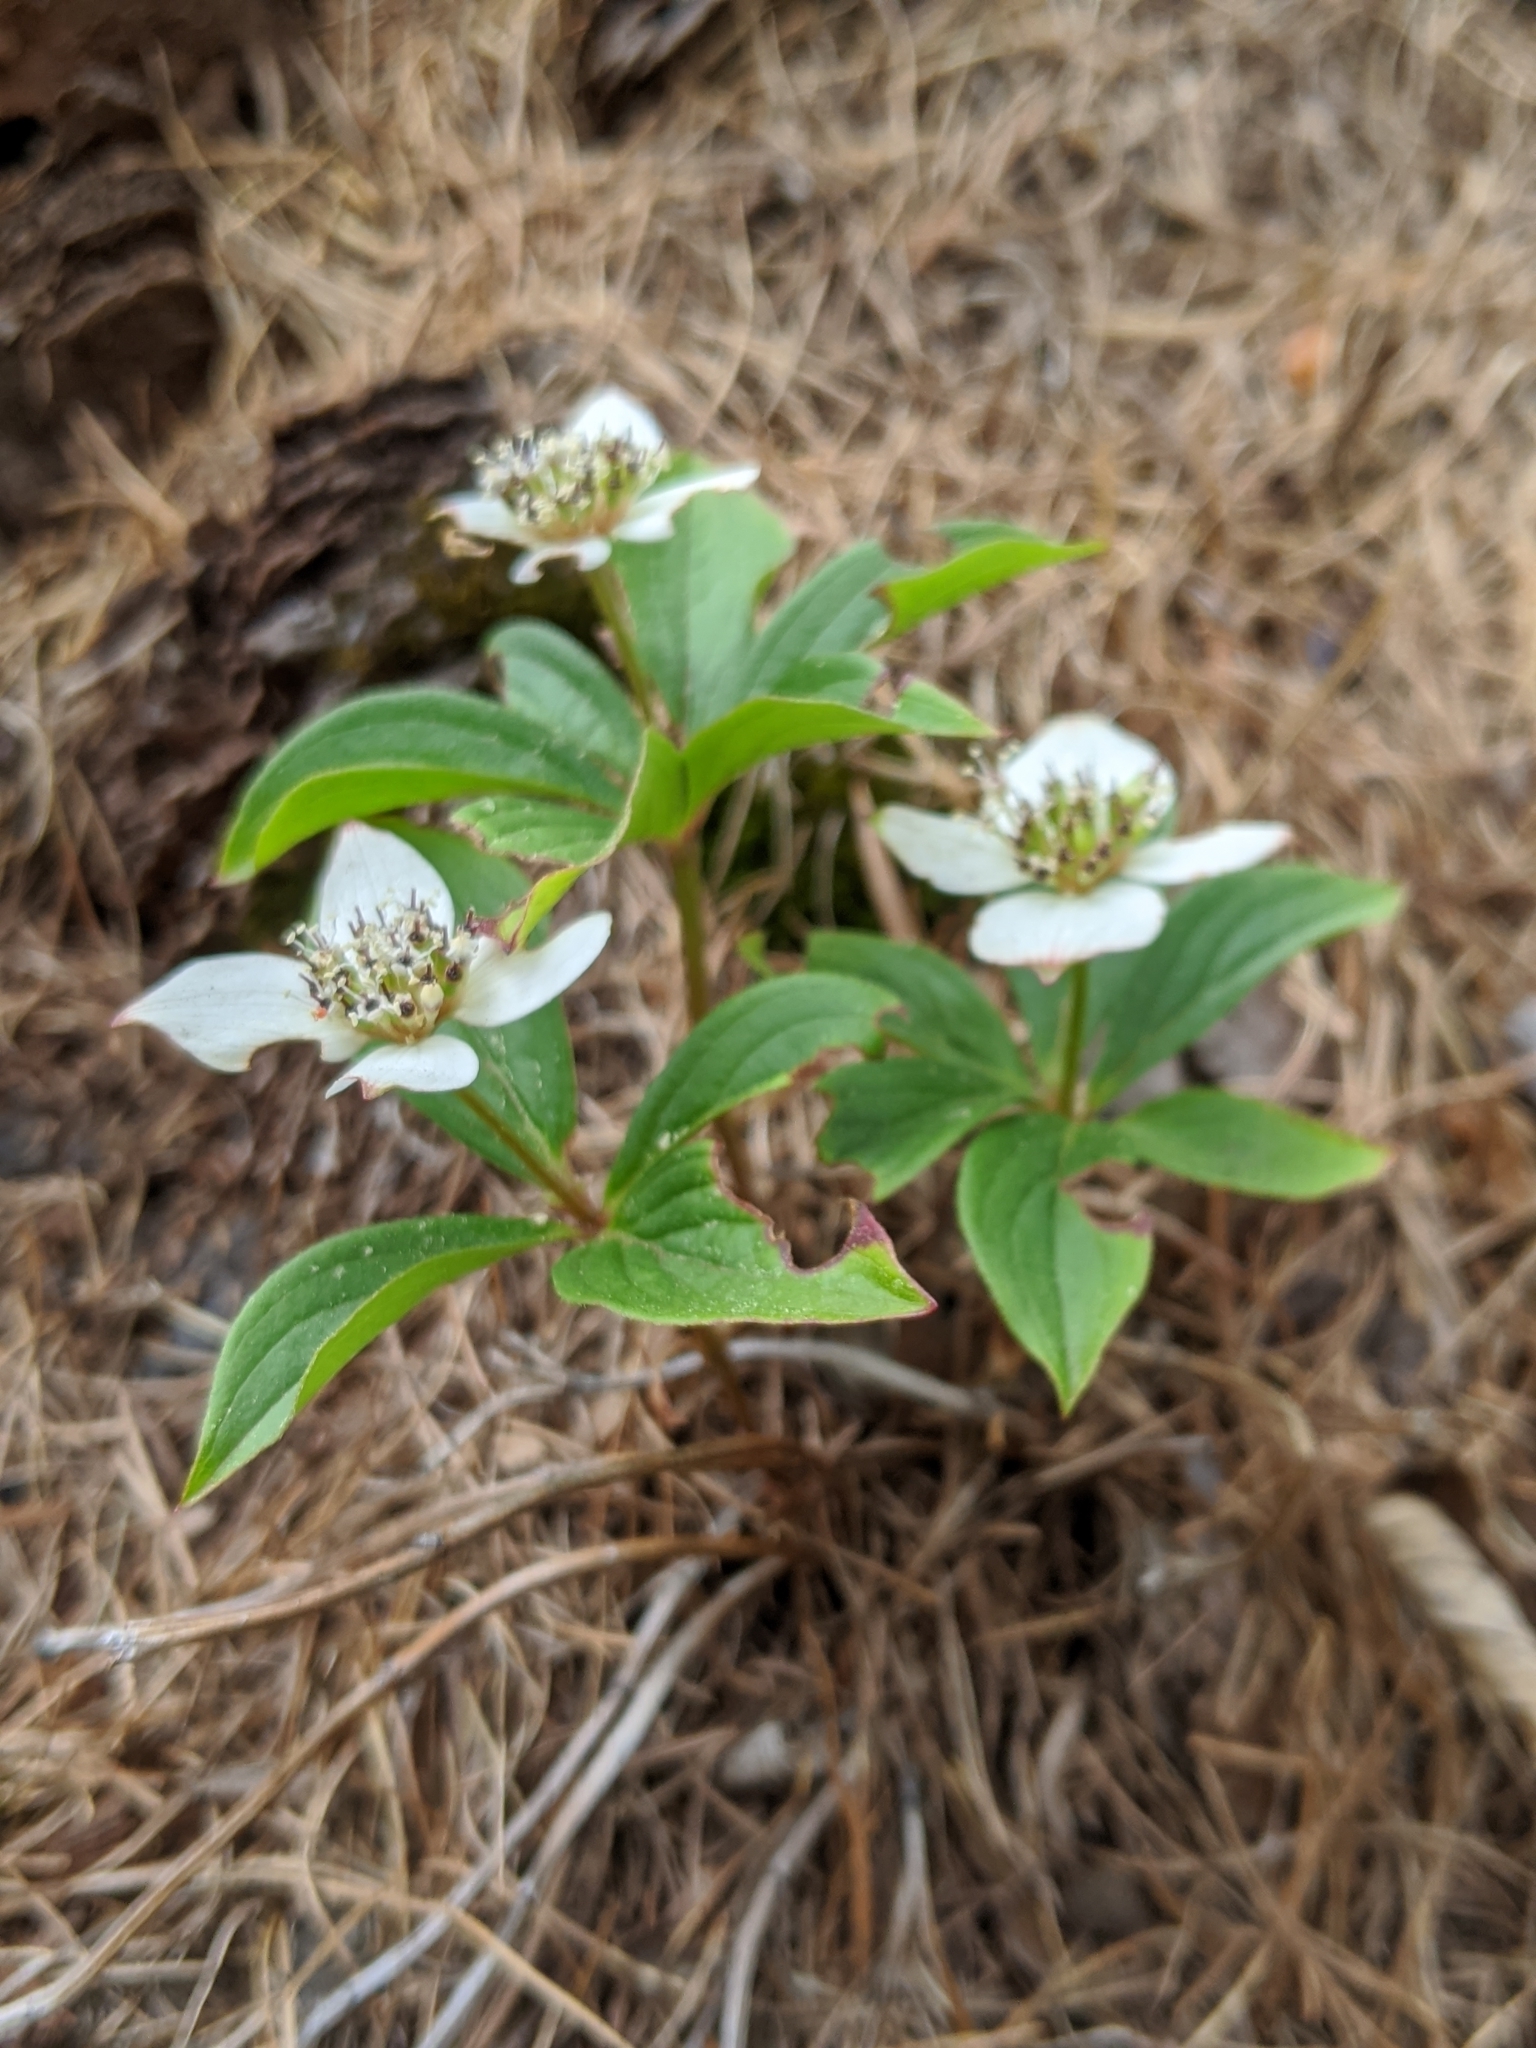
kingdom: Plantae
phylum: Tracheophyta
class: Magnoliopsida
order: Cornales
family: Cornaceae
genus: Cornus
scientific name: Cornus canadensis
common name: Creeping dogwood
